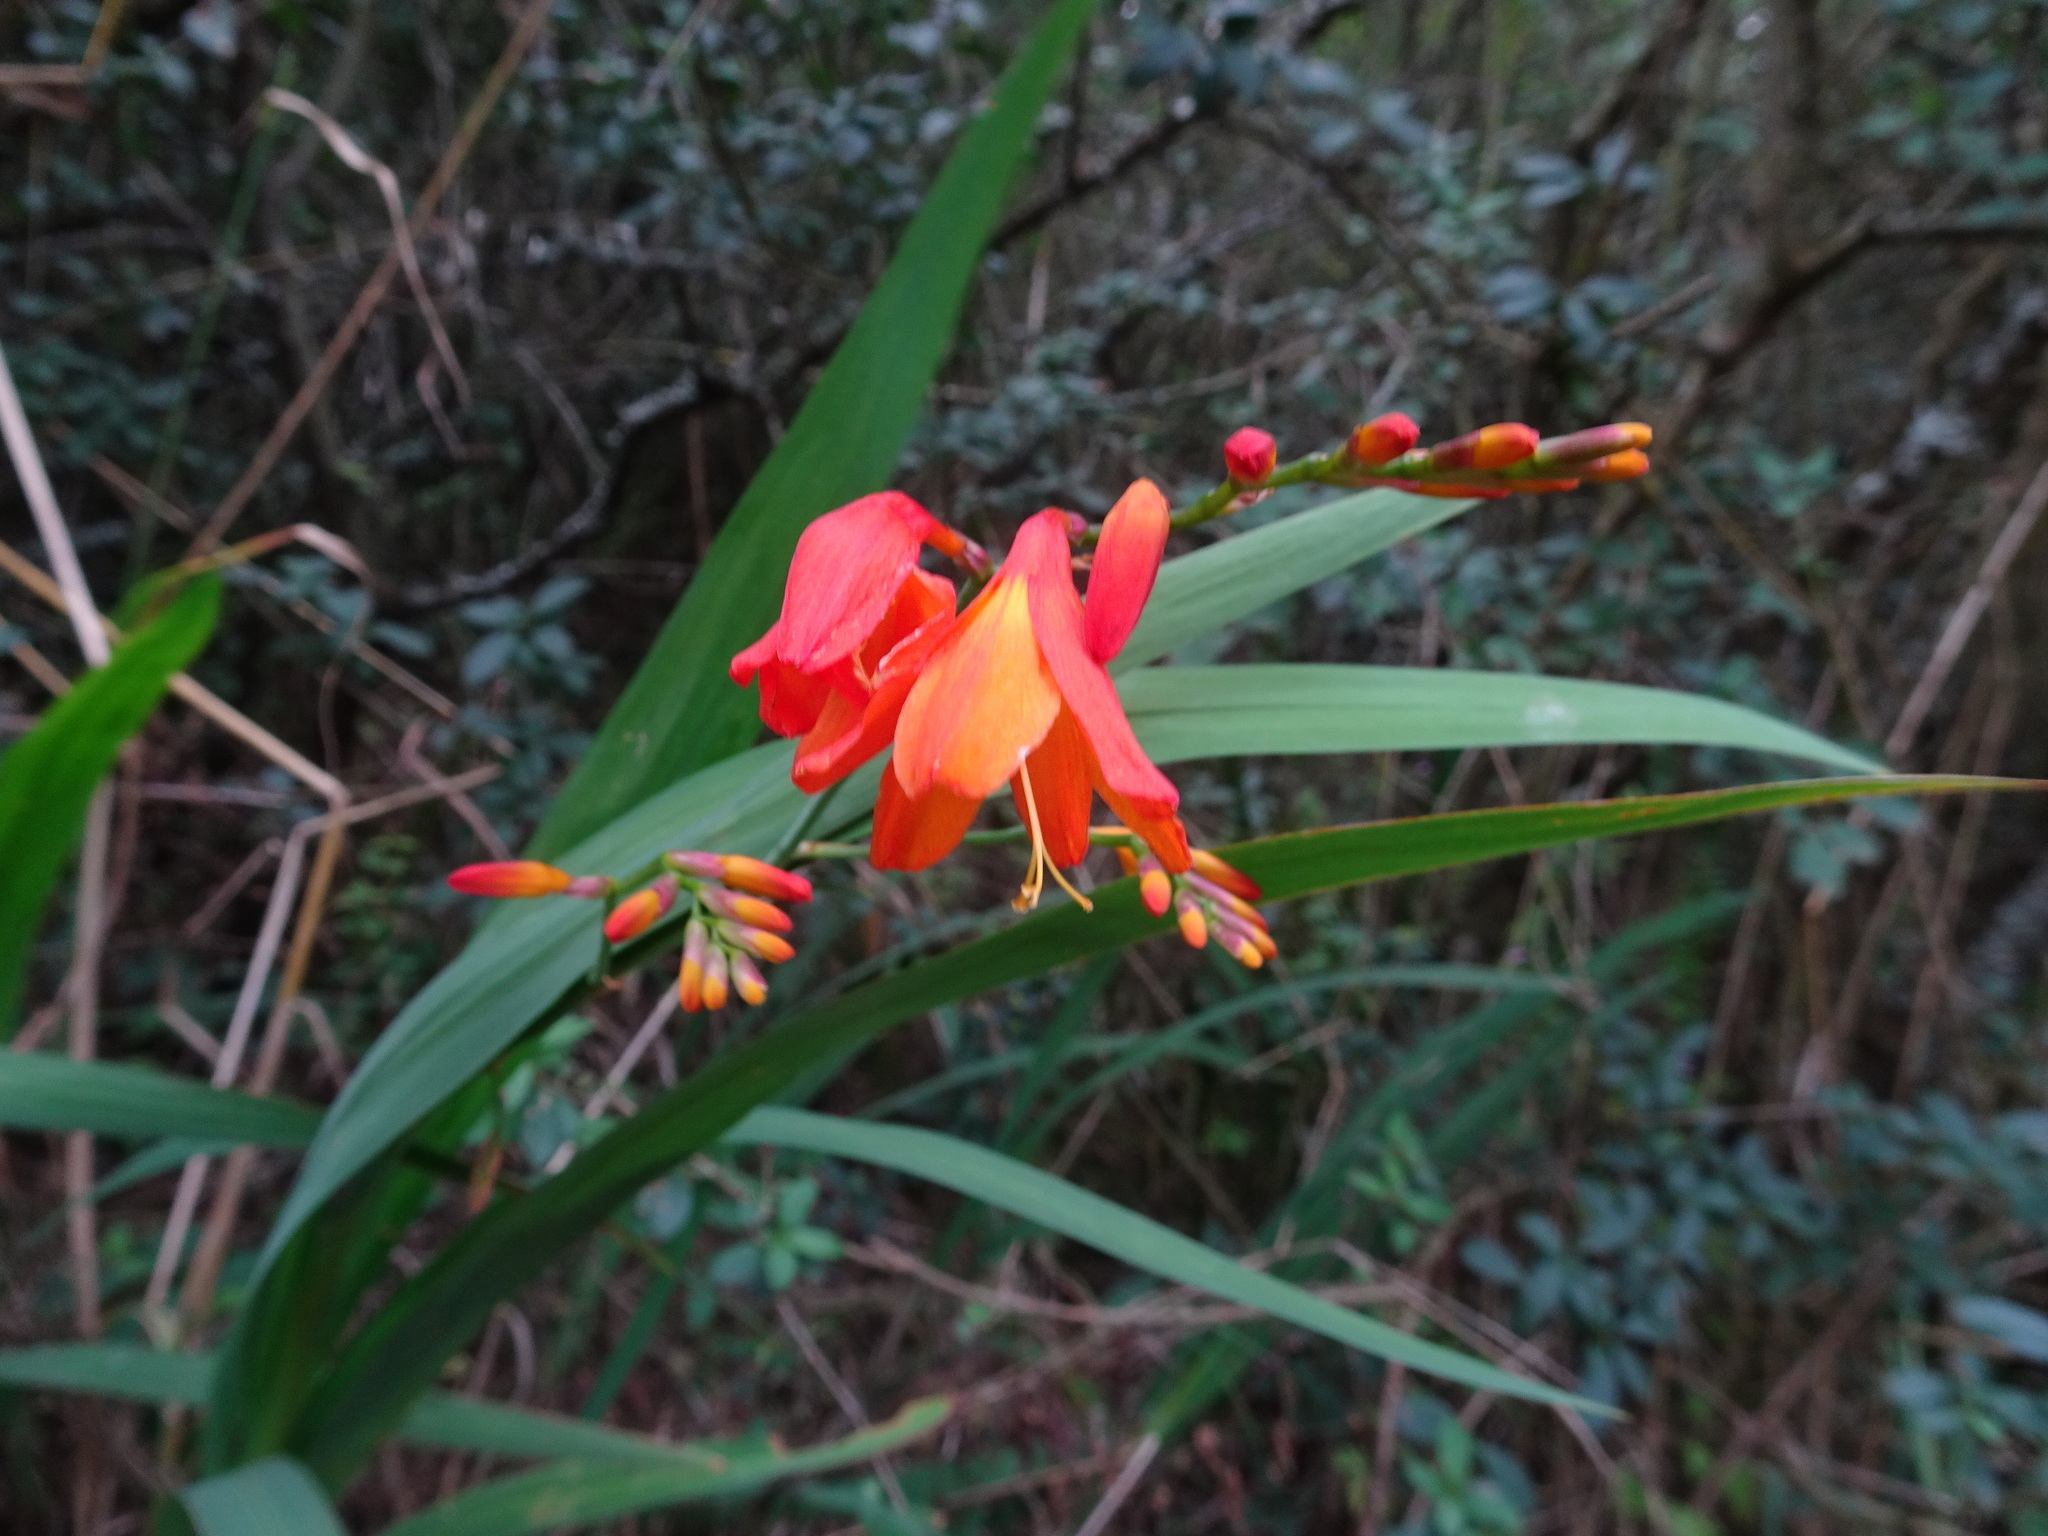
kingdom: Plantae
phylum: Tracheophyta
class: Liliopsida
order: Asparagales
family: Iridaceae
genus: Crocosmia
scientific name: Crocosmia crocosmiiflora
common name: Montbretia
